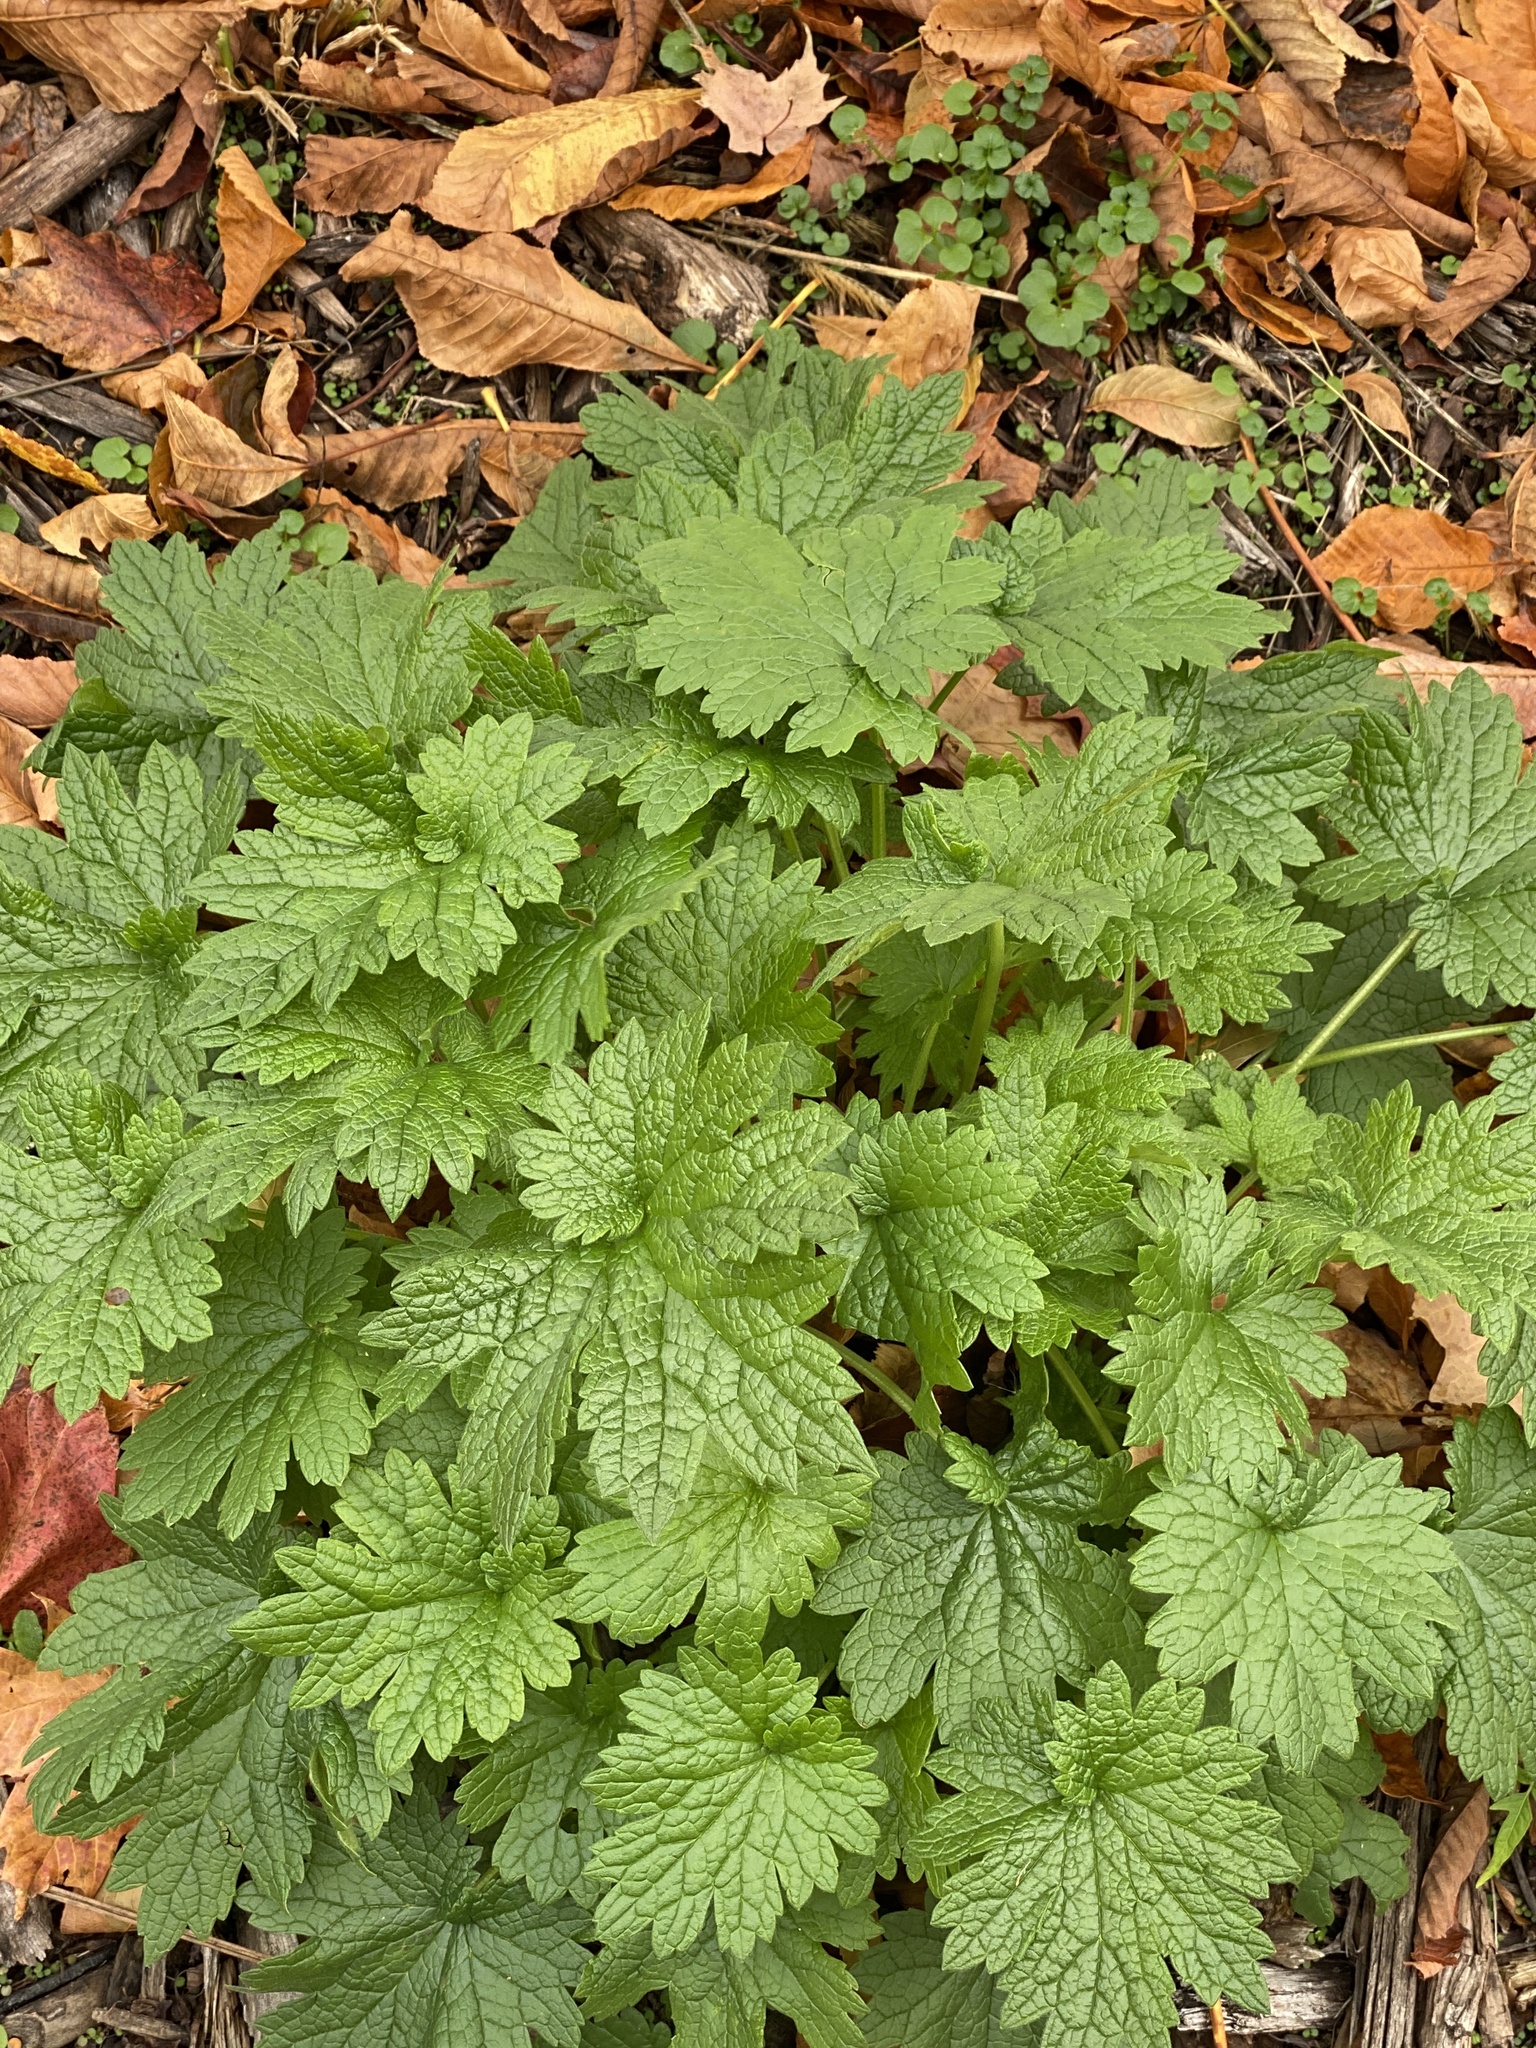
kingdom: Plantae
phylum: Tracheophyta
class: Magnoliopsida
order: Lamiales
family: Lamiaceae
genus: Leonurus
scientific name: Leonurus cardiaca
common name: Motherwort
